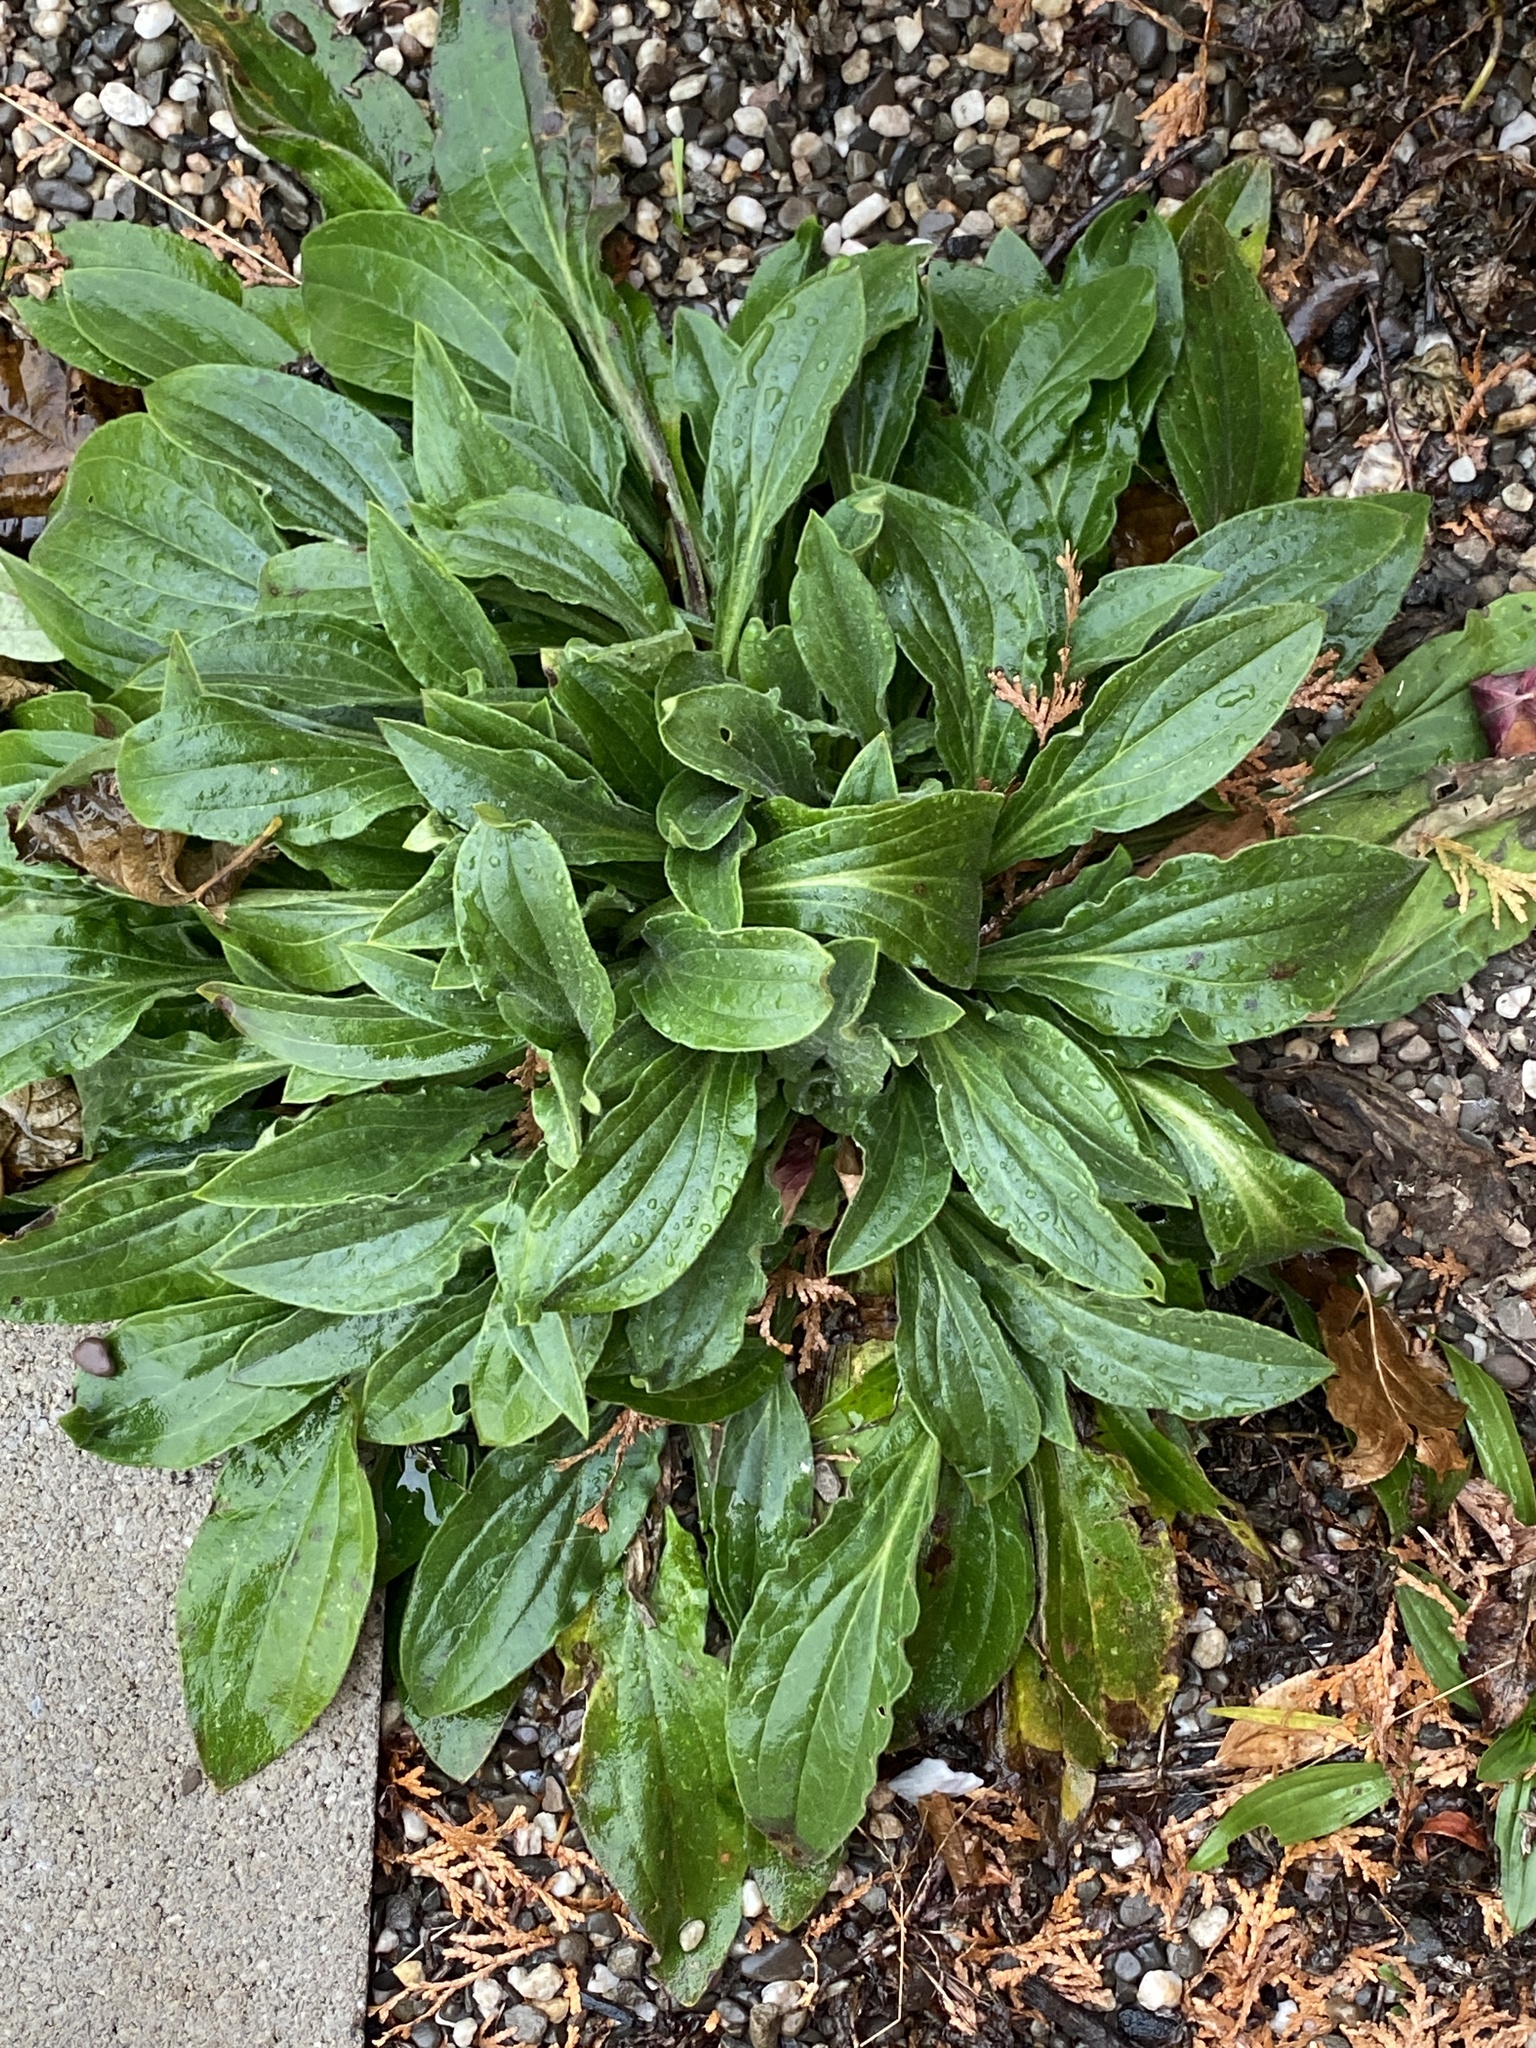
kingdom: Plantae
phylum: Tracheophyta
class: Magnoliopsida
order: Caryophyllales
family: Caryophyllaceae
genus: Silene
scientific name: Silene latifolia
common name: White campion
